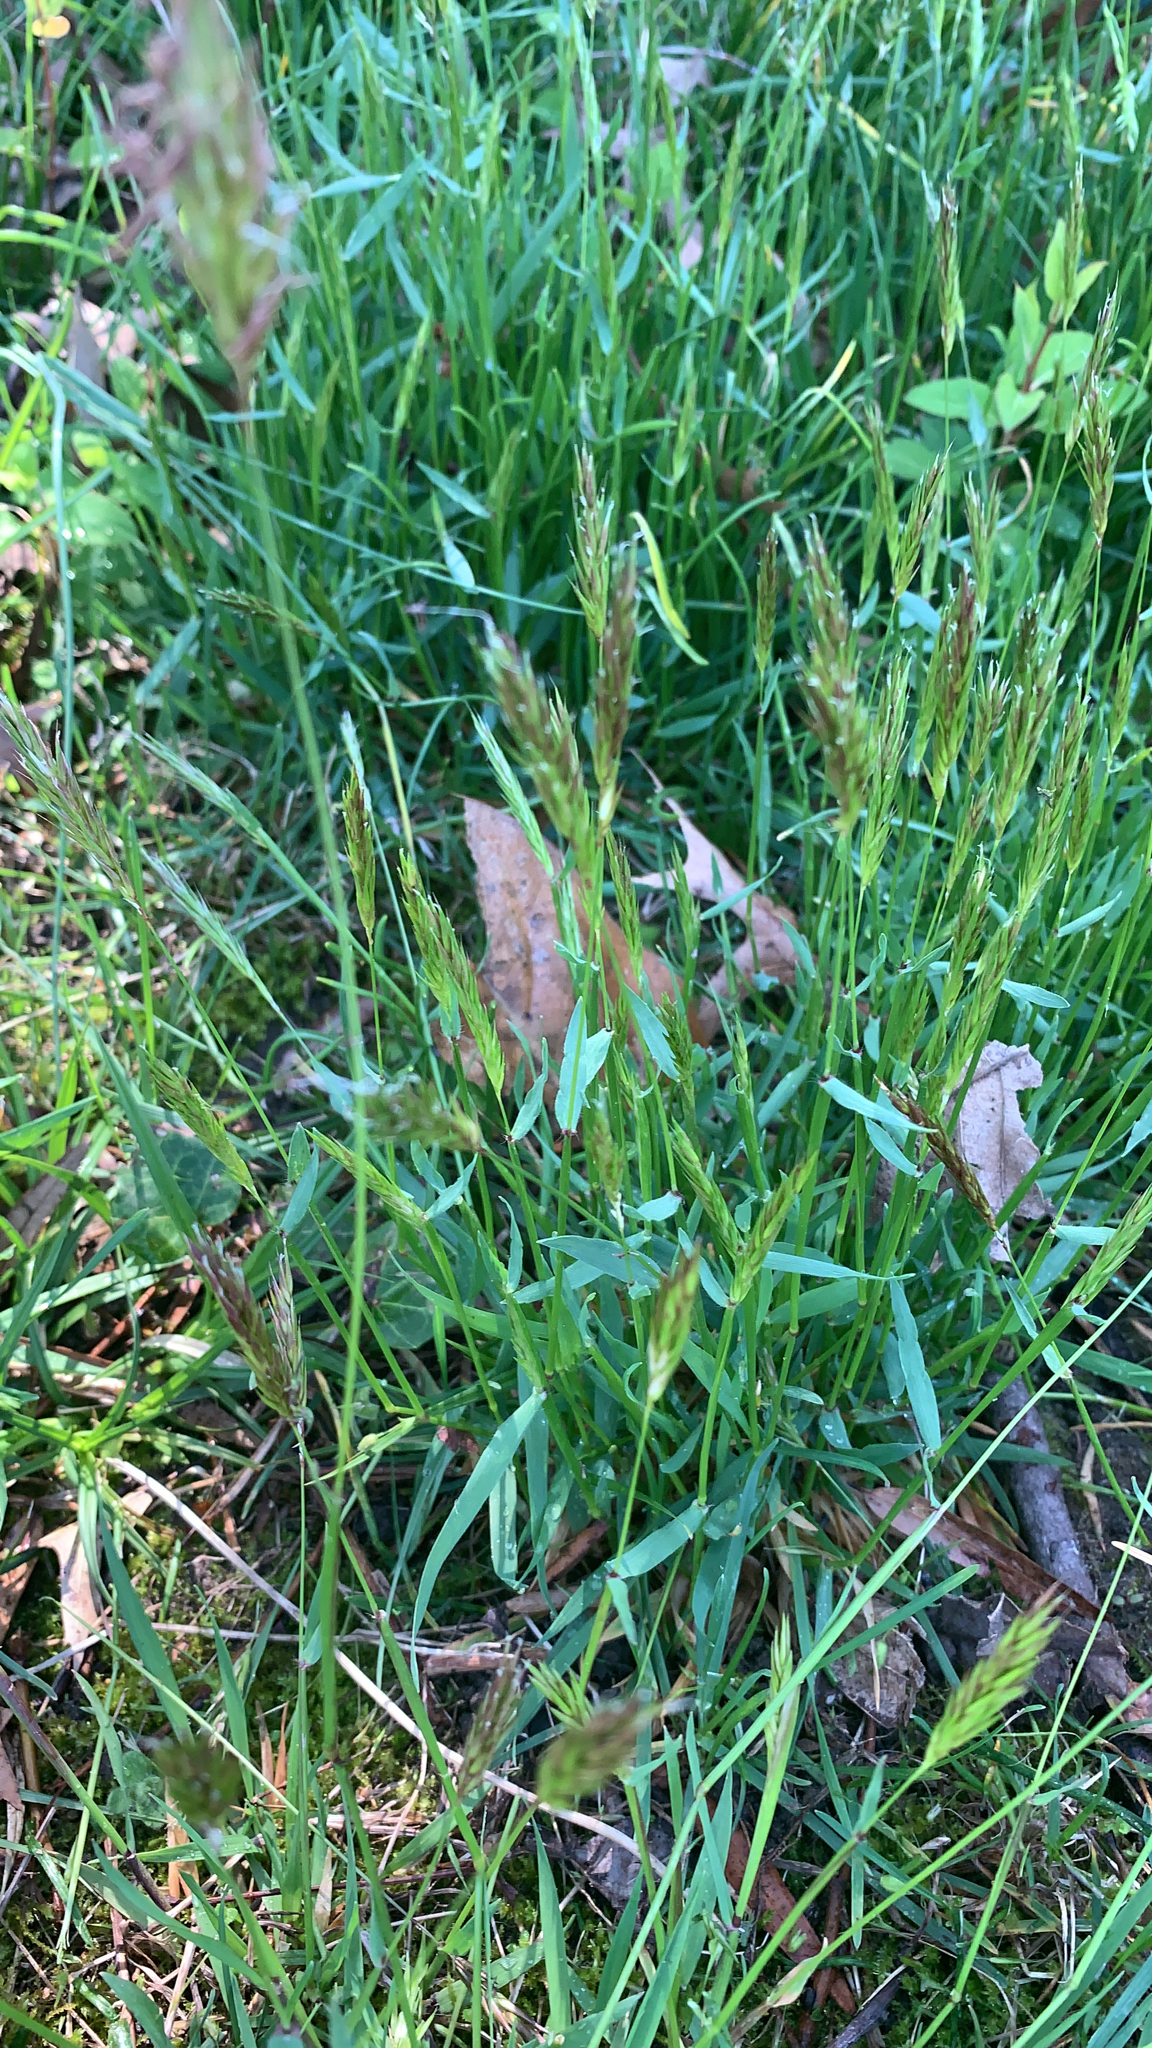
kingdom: Plantae
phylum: Tracheophyta
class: Liliopsida
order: Poales
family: Poaceae
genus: Anthoxanthum
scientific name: Anthoxanthum odoratum
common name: Sweet vernalgrass
